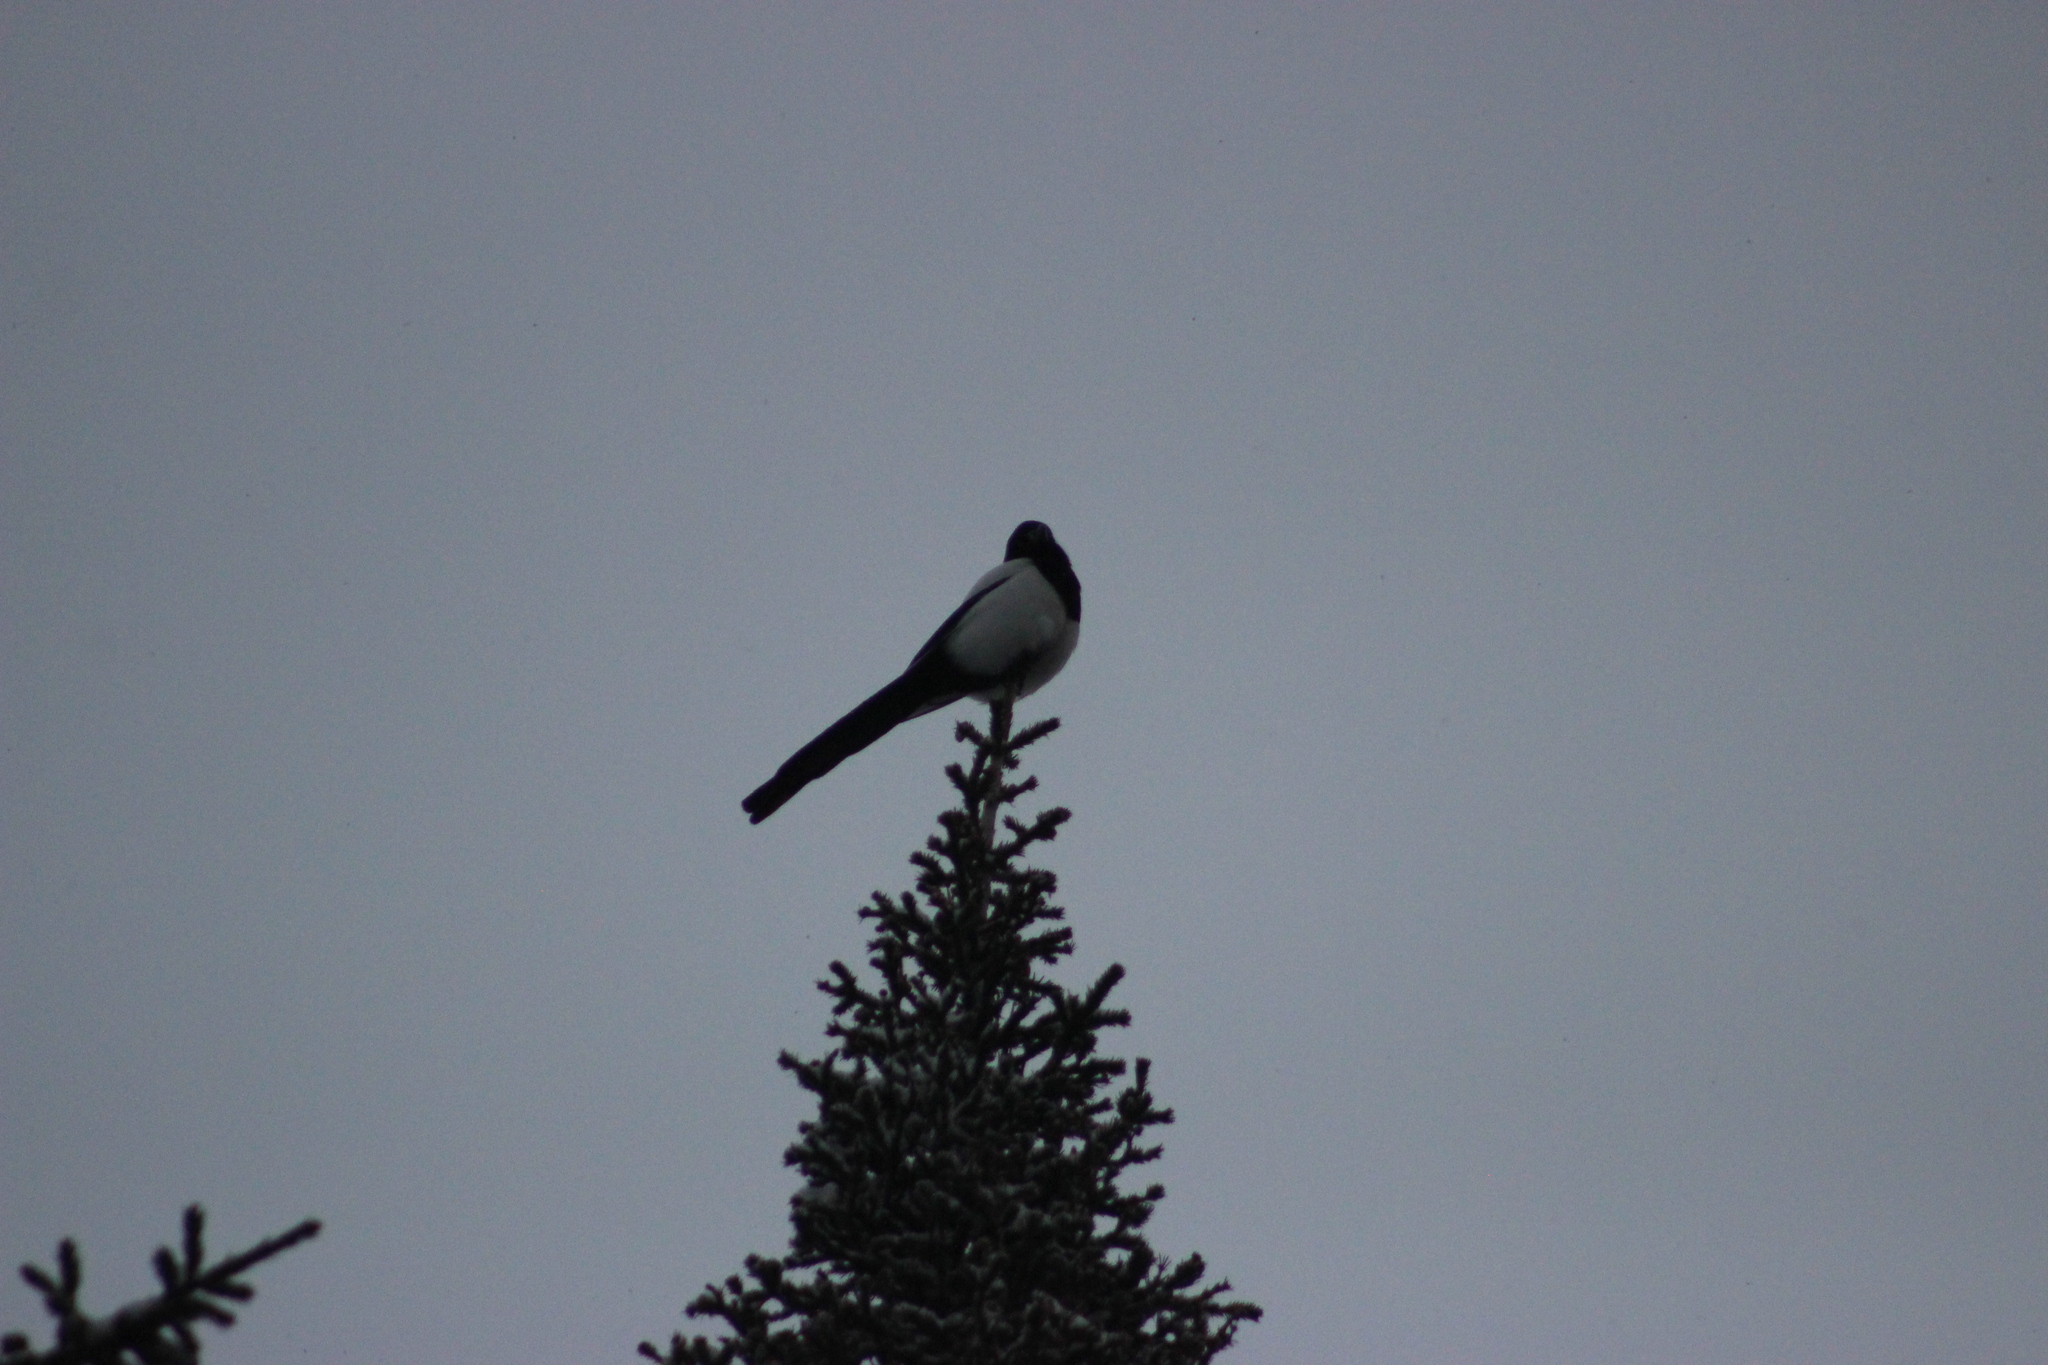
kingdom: Animalia
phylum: Chordata
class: Aves
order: Passeriformes
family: Corvidae
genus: Pica
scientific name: Pica pica
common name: Eurasian magpie
